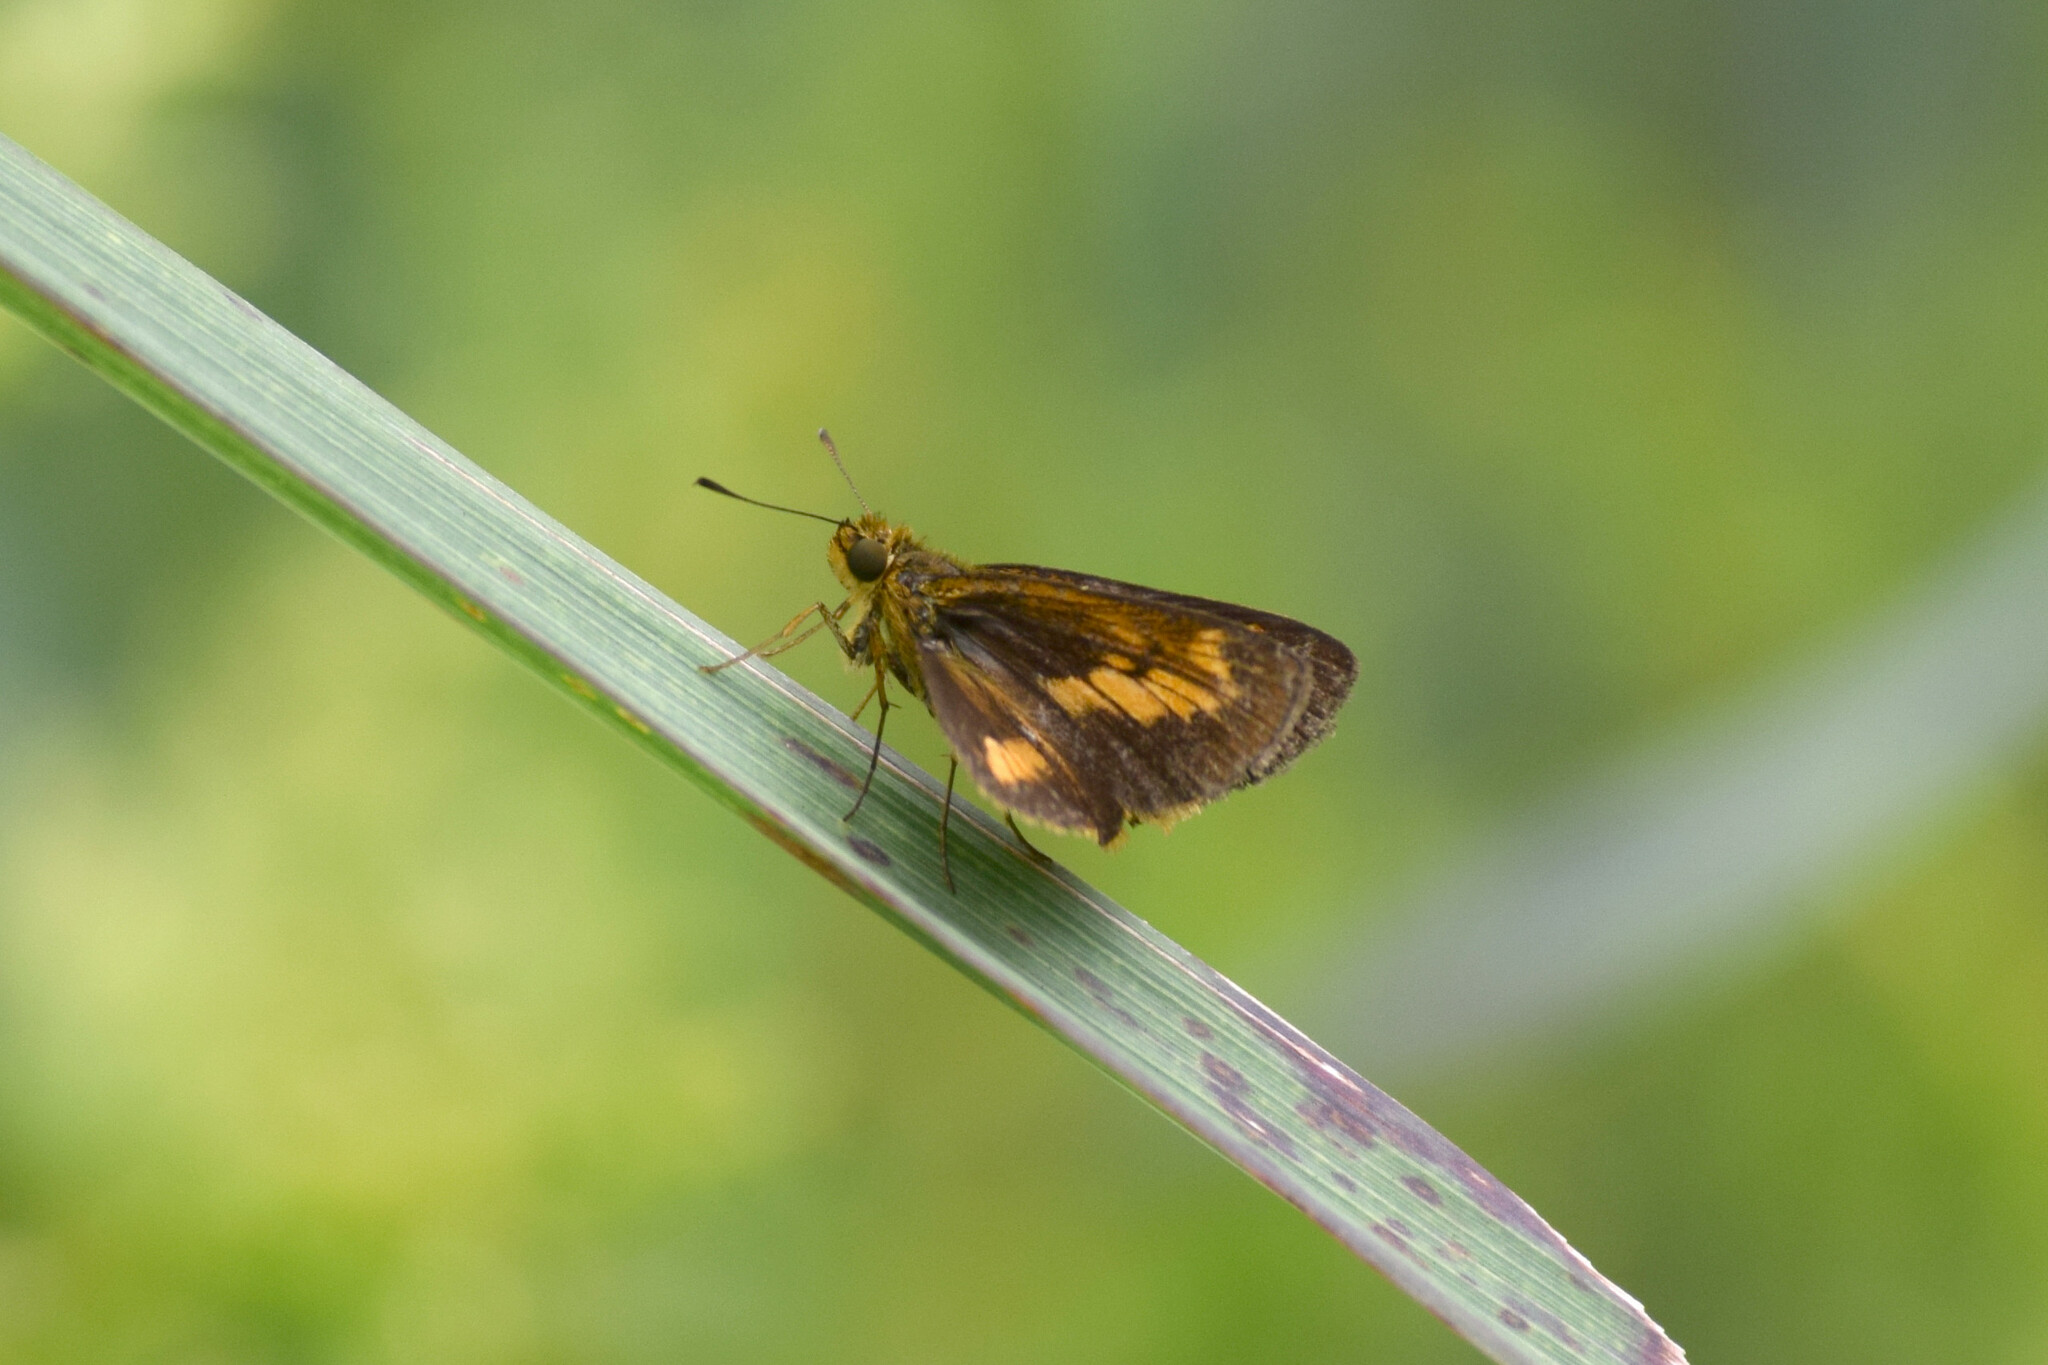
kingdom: Animalia
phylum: Arthropoda
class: Insecta
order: Lepidoptera
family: Hesperiidae
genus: Oriens
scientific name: Oriens goloides
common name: Smaller dartlet
